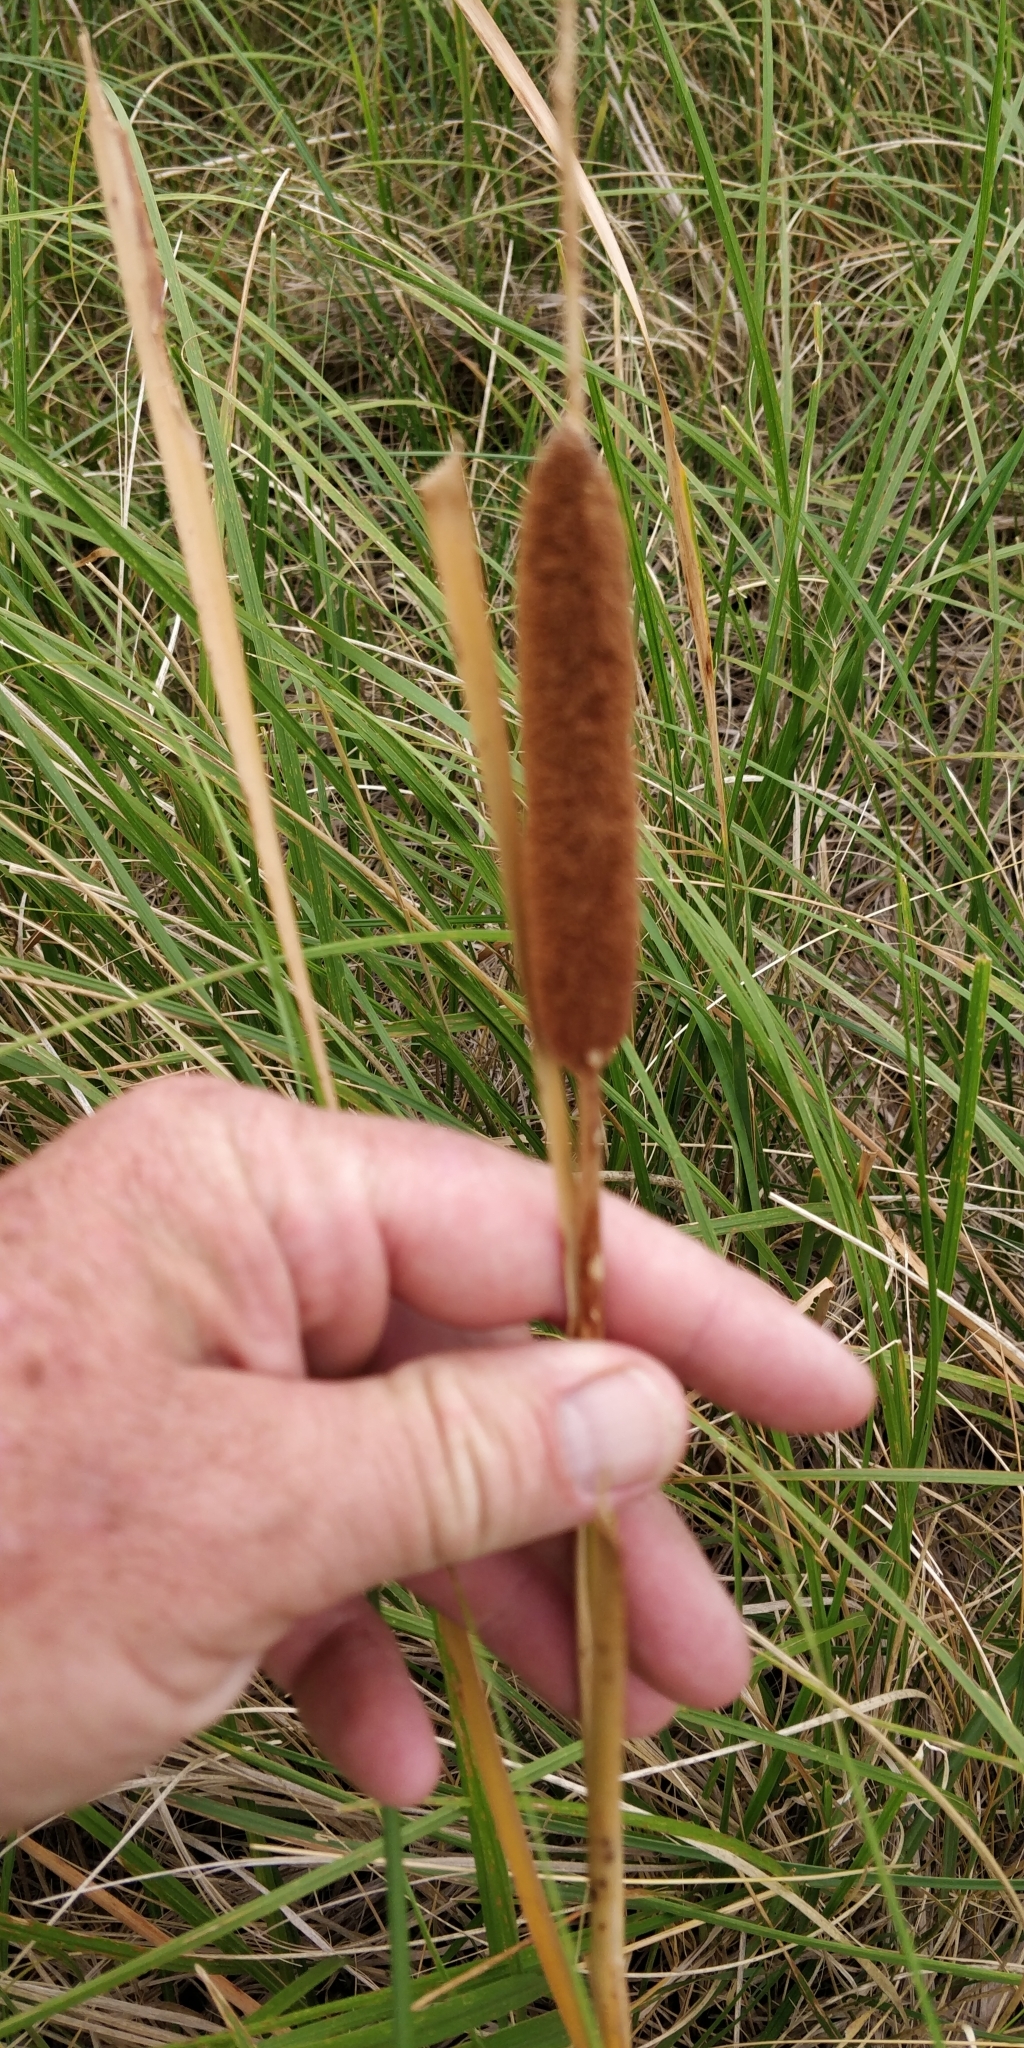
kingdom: Plantae
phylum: Tracheophyta
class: Liliopsida
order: Poales
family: Typhaceae
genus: Typha
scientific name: Typha angustifolia
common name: Lesser bulrush
